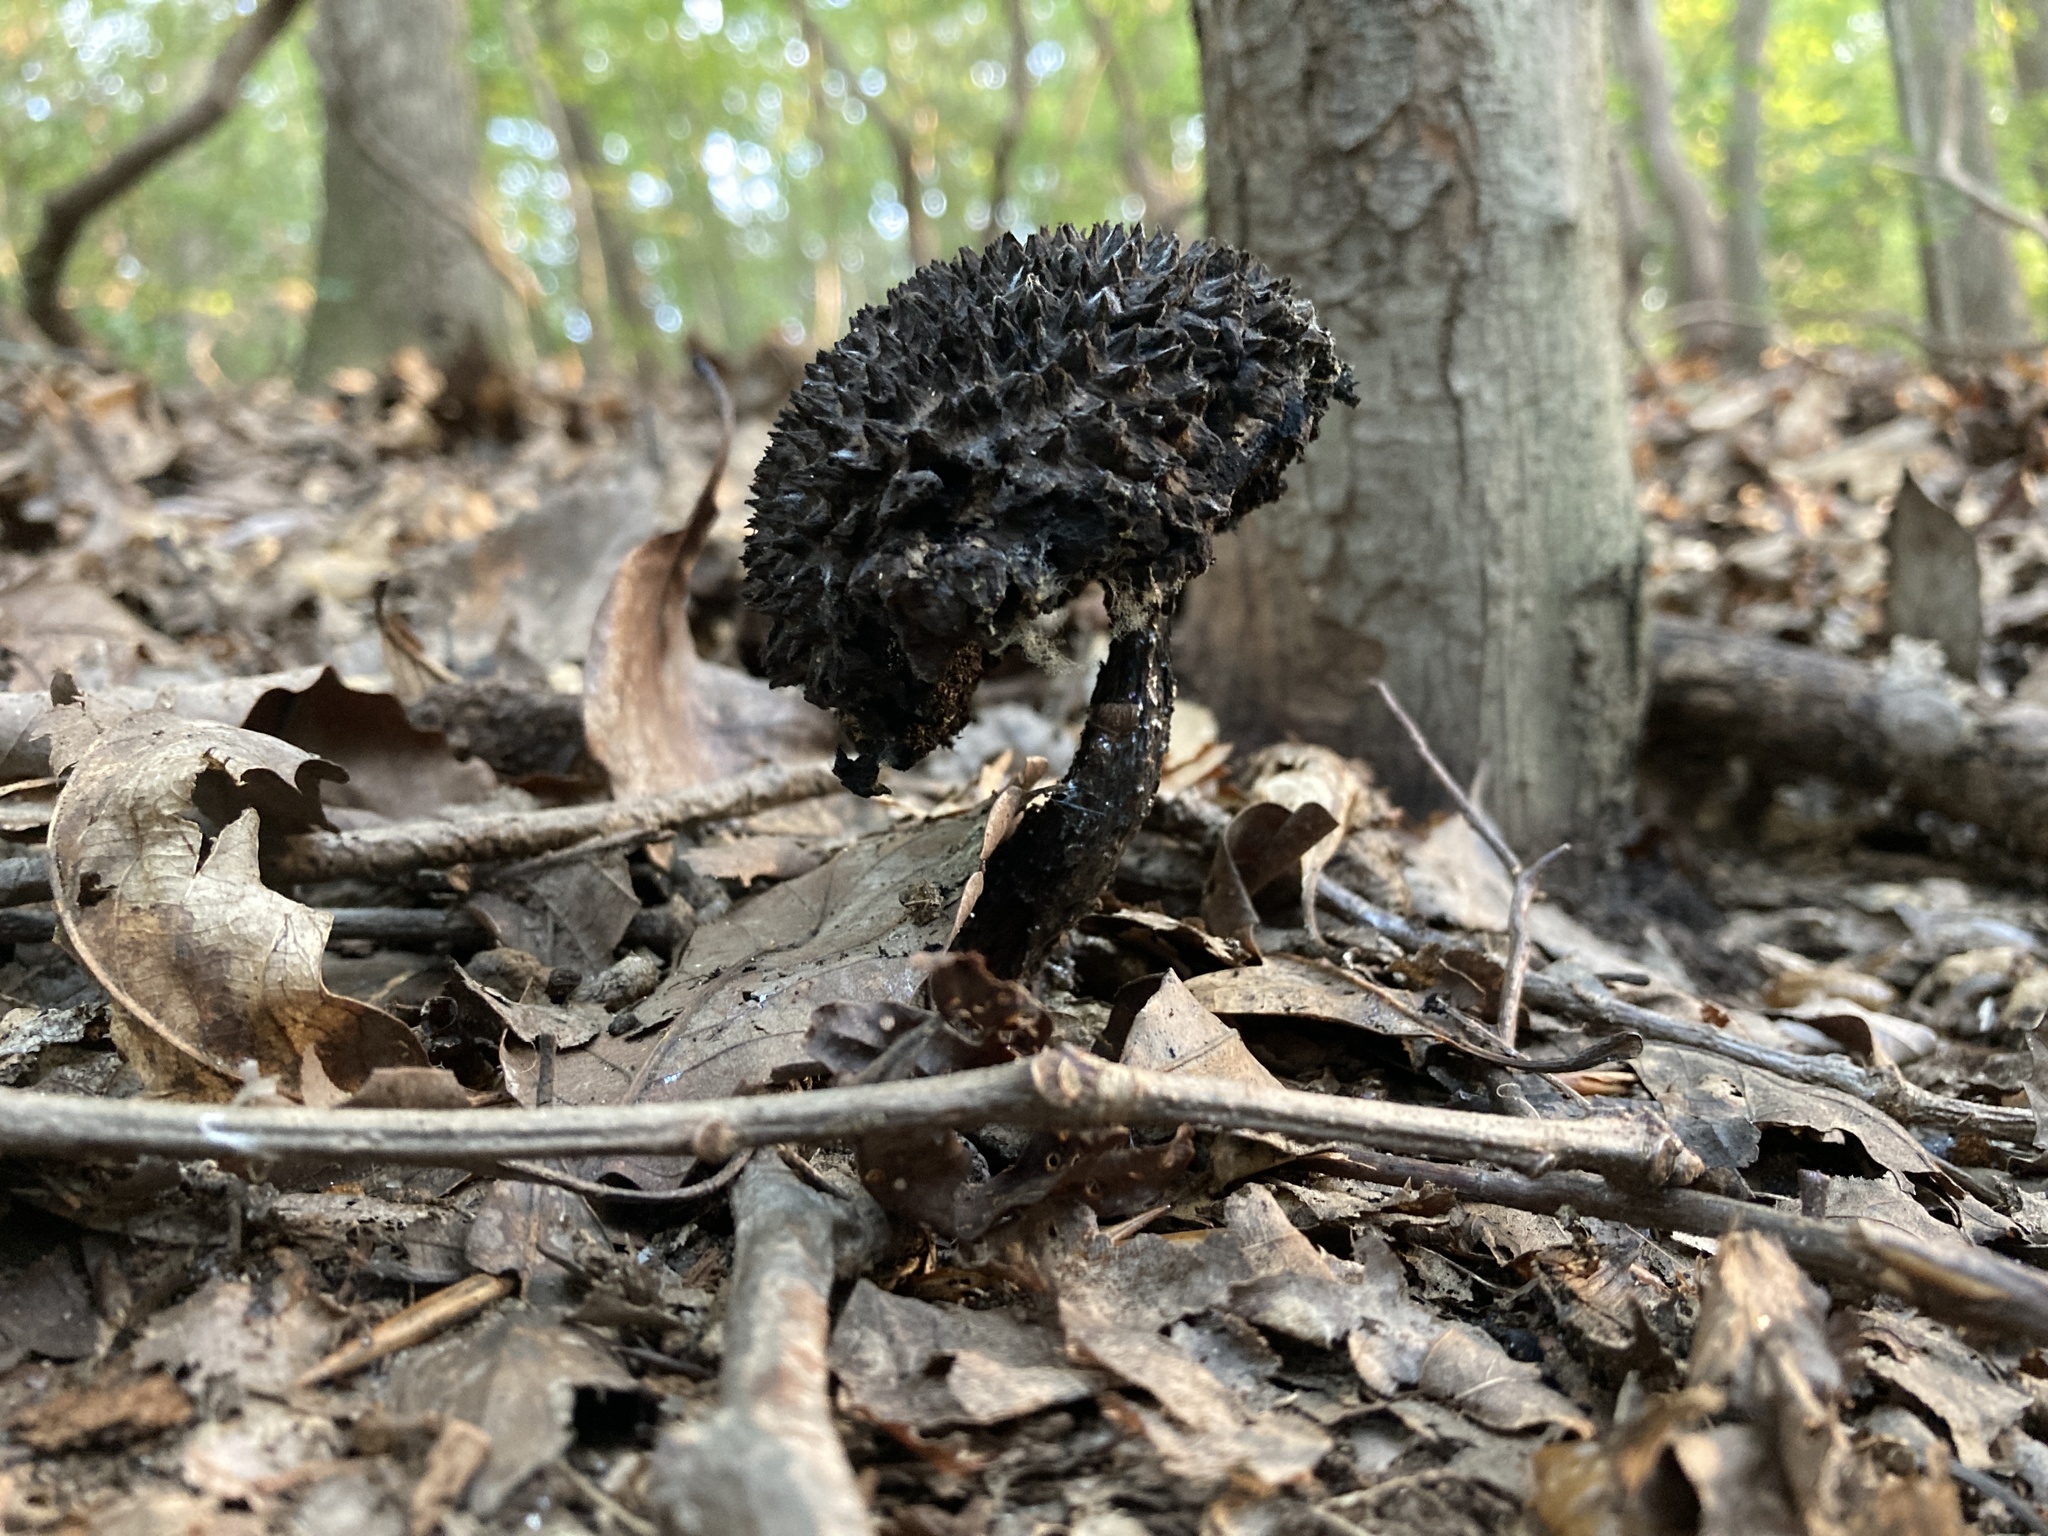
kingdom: Fungi
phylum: Basidiomycota
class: Agaricomycetes
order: Boletales
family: Boletaceae
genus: Strobilomyces
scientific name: Strobilomyces strobilaceus
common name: Old man of the woods
